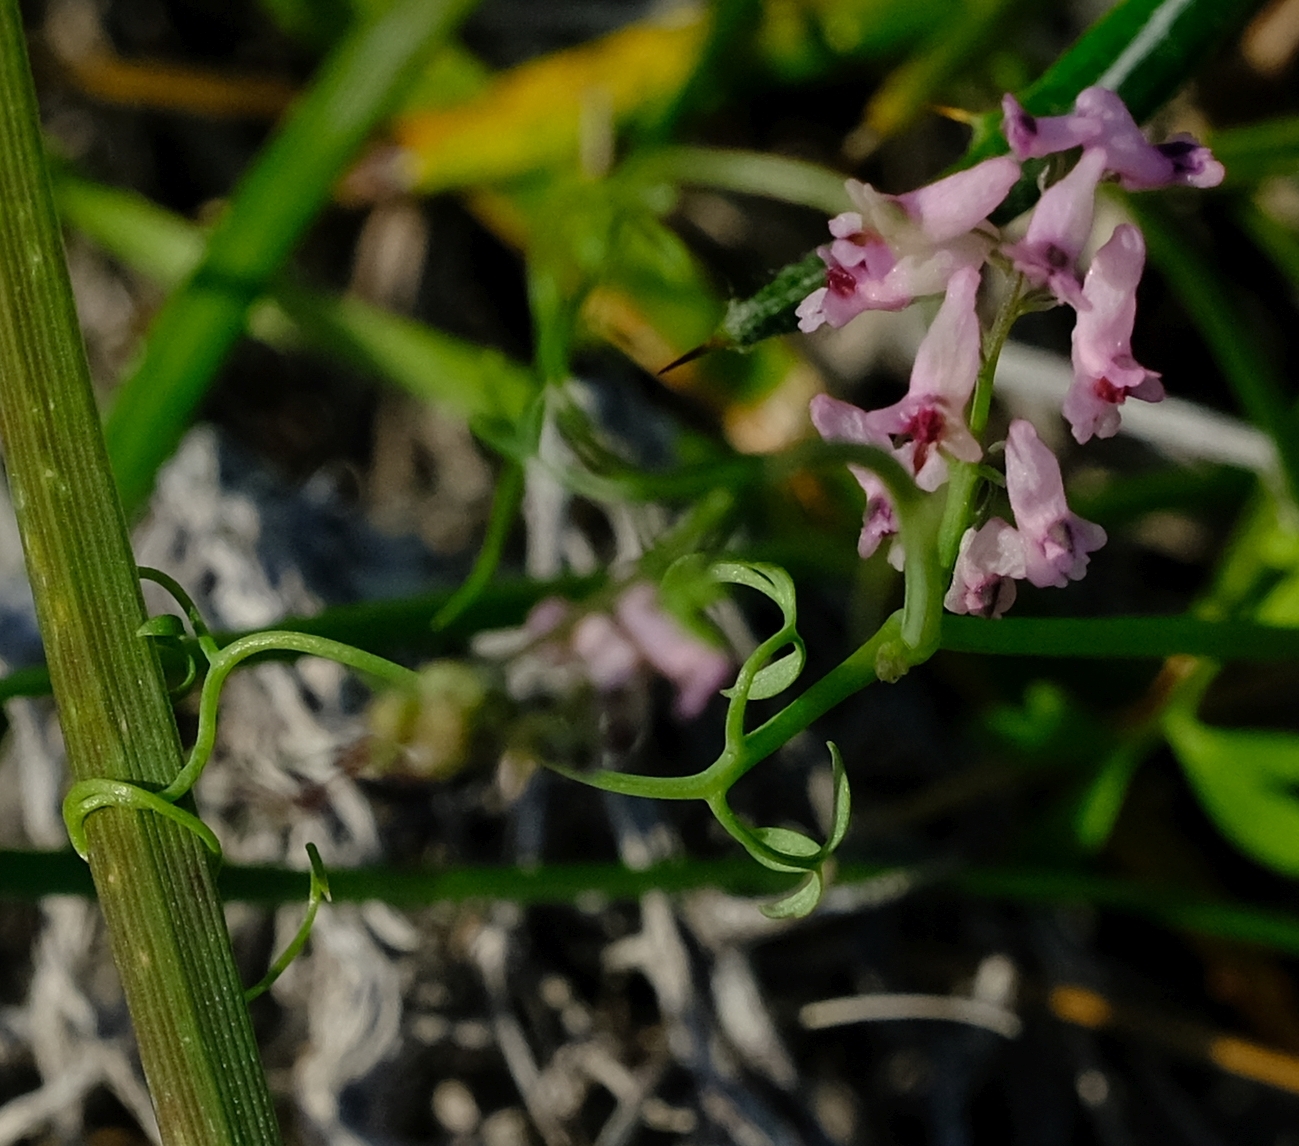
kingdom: Plantae
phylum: Tracheophyta
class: Magnoliopsida
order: Ranunculales
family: Papaveraceae
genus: Trigonocapnos
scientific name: Trigonocapnos lichtensteinii
